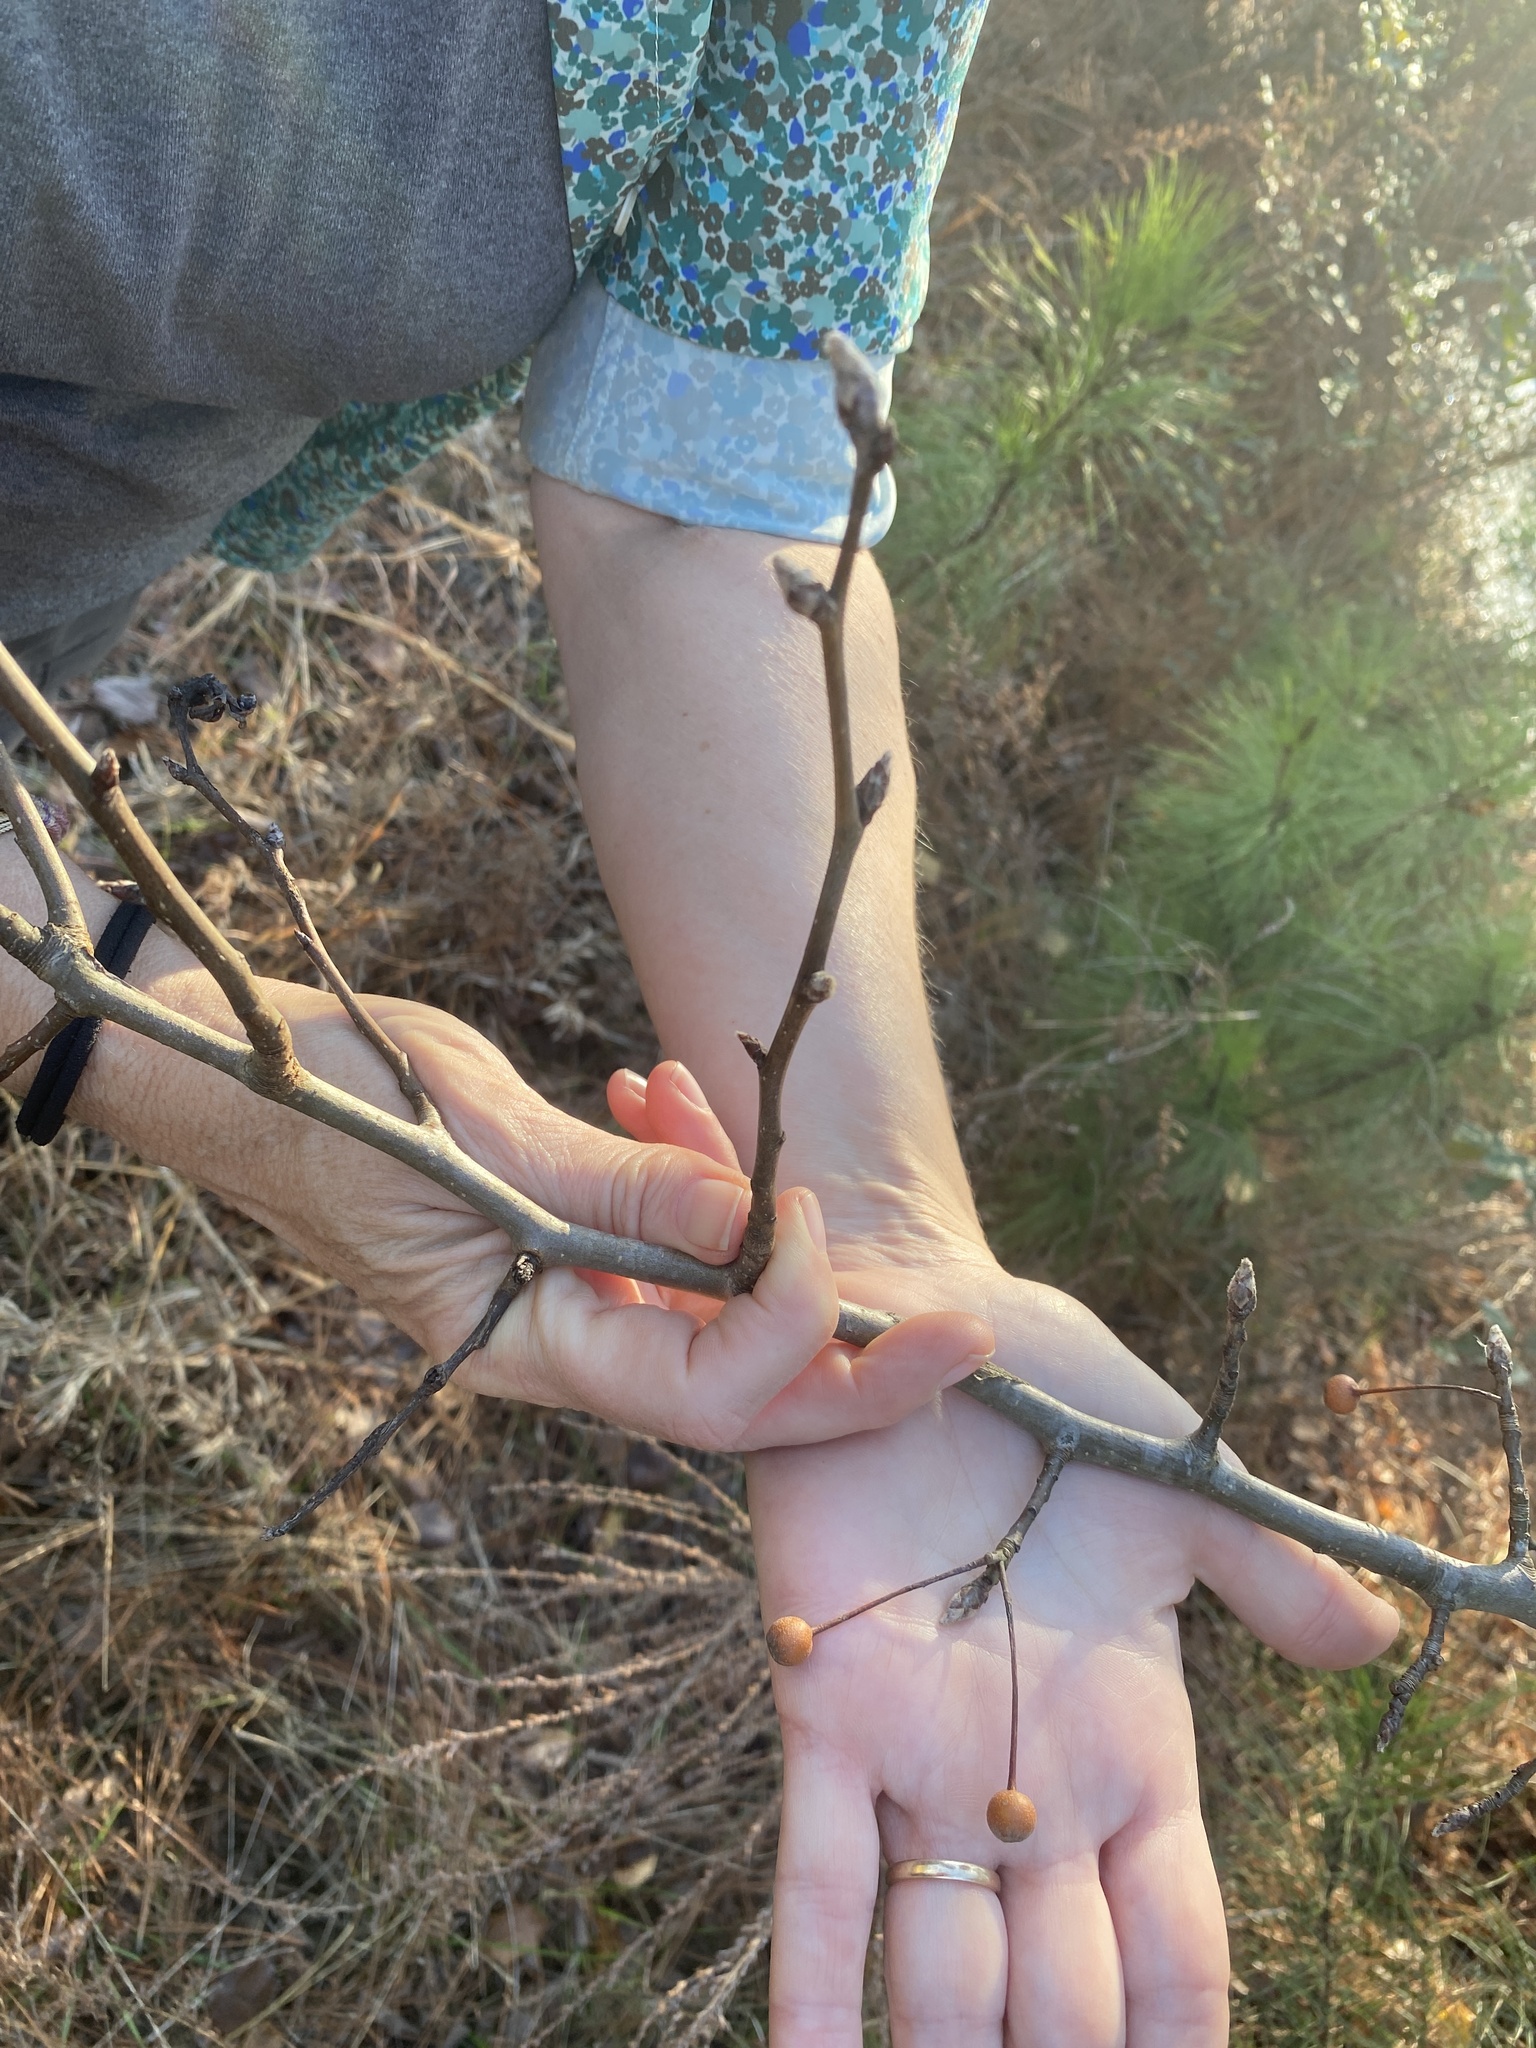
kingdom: Plantae
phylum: Tracheophyta
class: Magnoliopsida
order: Rosales
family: Rosaceae
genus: Pyrus
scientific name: Pyrus calleryana
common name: Callery pear
